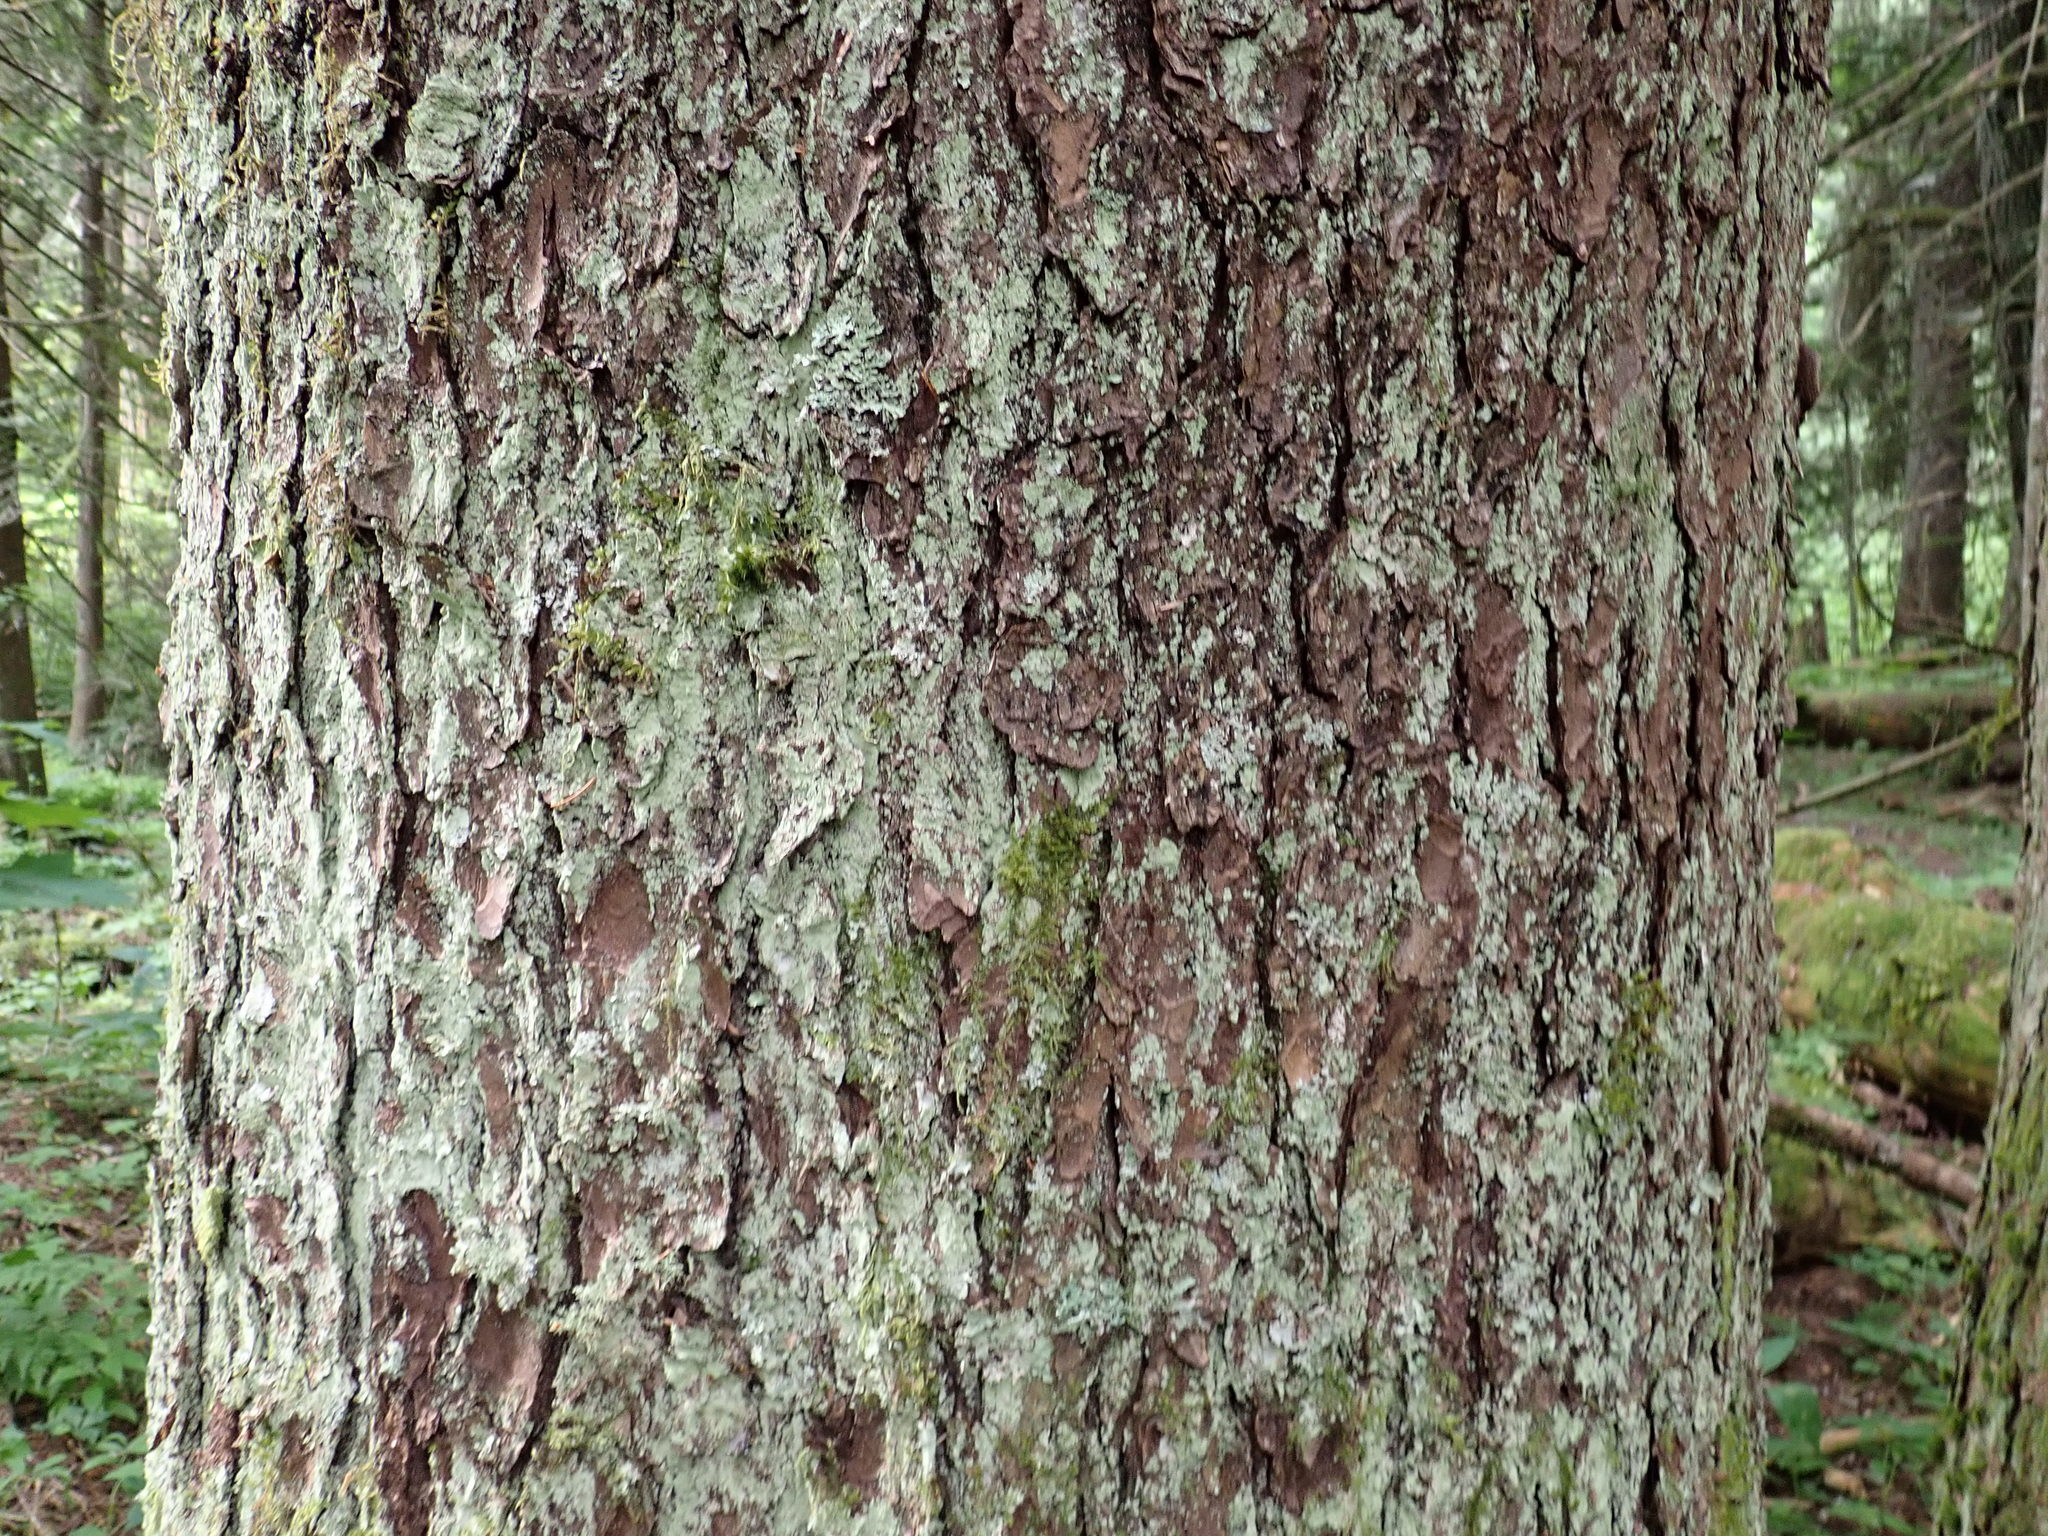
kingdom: Plantae
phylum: Tracheophyta
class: Pinopsida
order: Pinales
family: Pinaceae
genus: Tsuga
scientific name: Tsuga heterophylla
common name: Western hemlock
